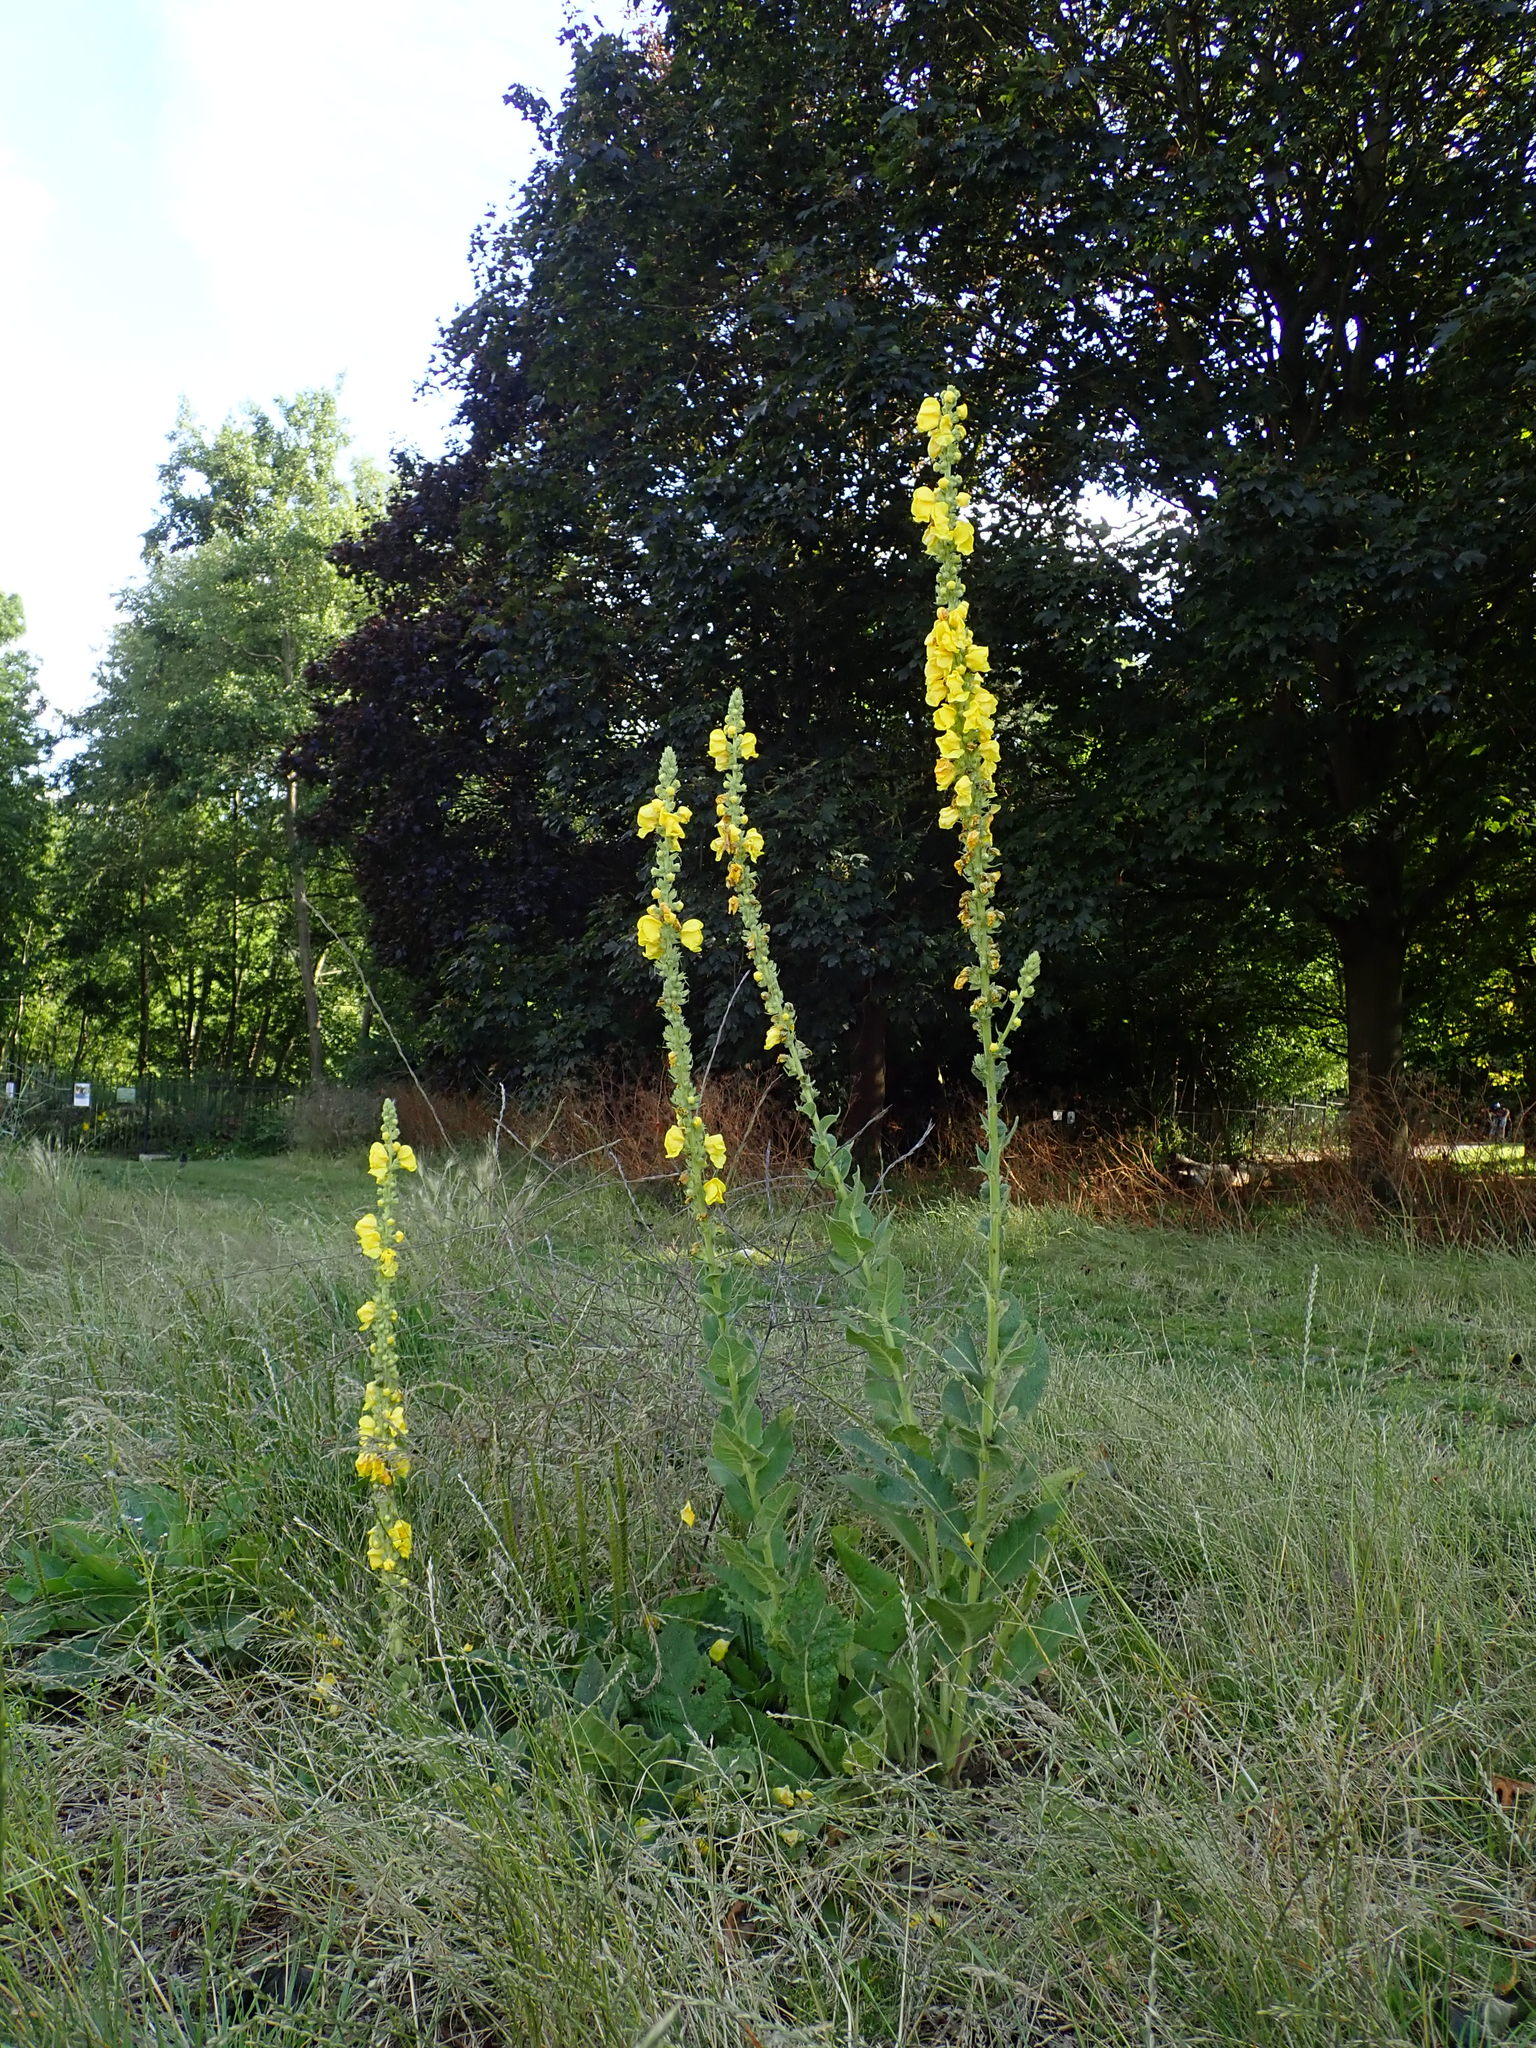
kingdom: Plantae
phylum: Tracheophyta
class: Magnoliopsida
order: Lamiales
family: Scrophulariaceae
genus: Verbascum
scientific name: Verbascum phlomoides
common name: Orange mullein
